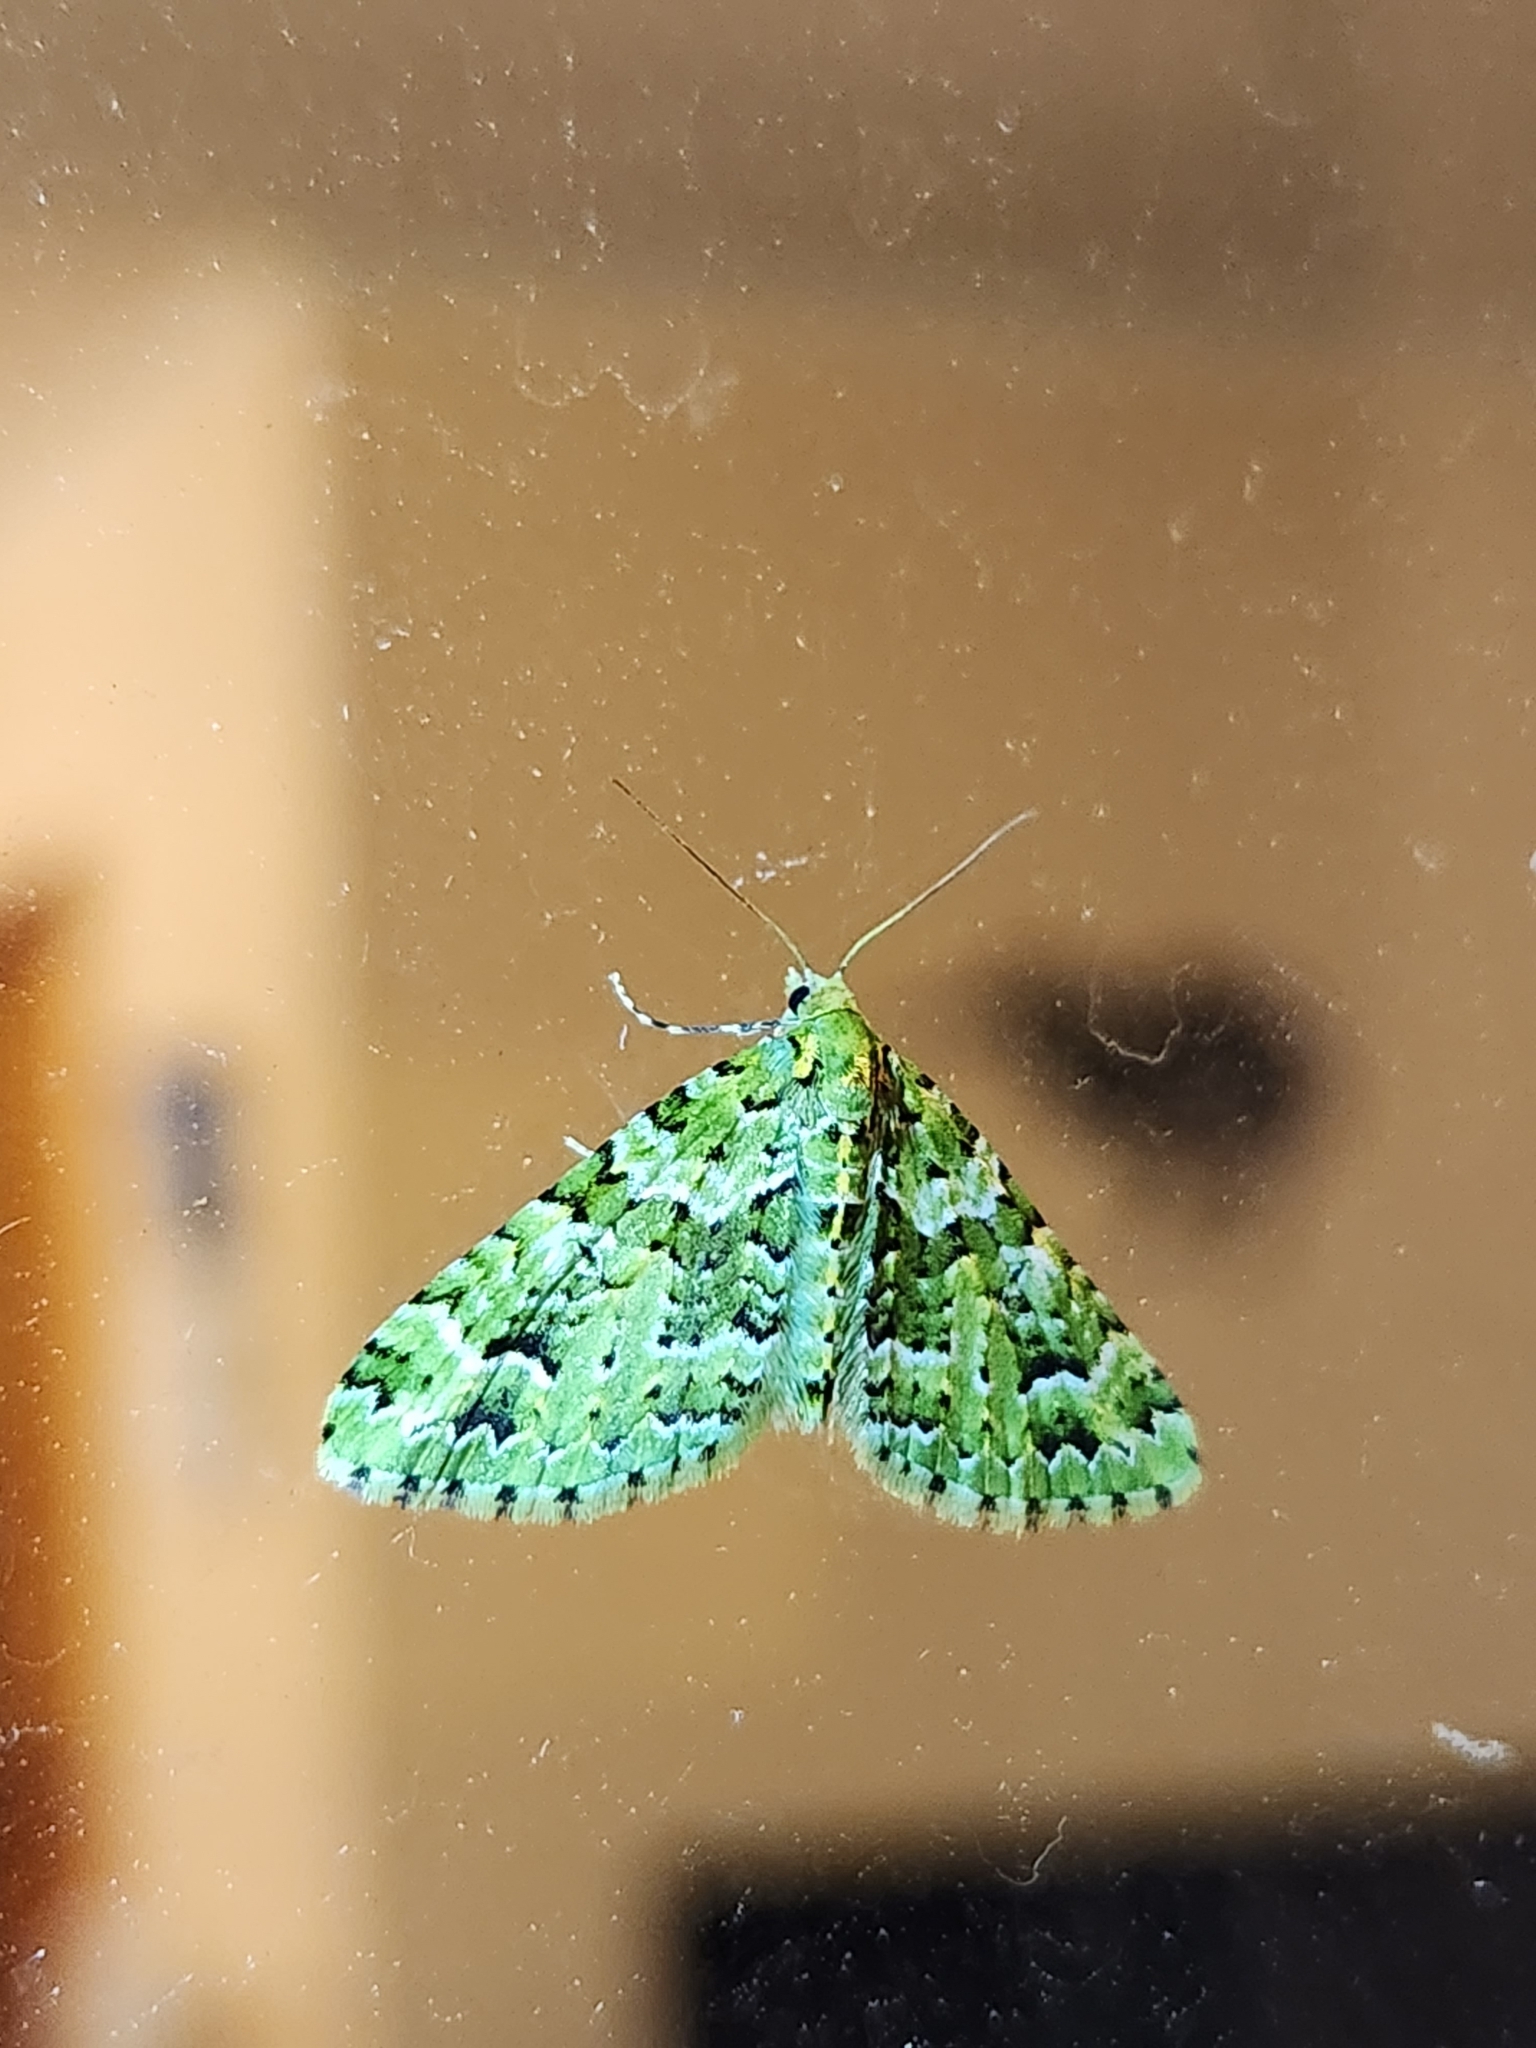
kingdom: Animalia
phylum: Arthropoda
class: Insecta
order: Lepidoptera
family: Geometridae
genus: Pasiphila
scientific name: Pasiphila melochlora
